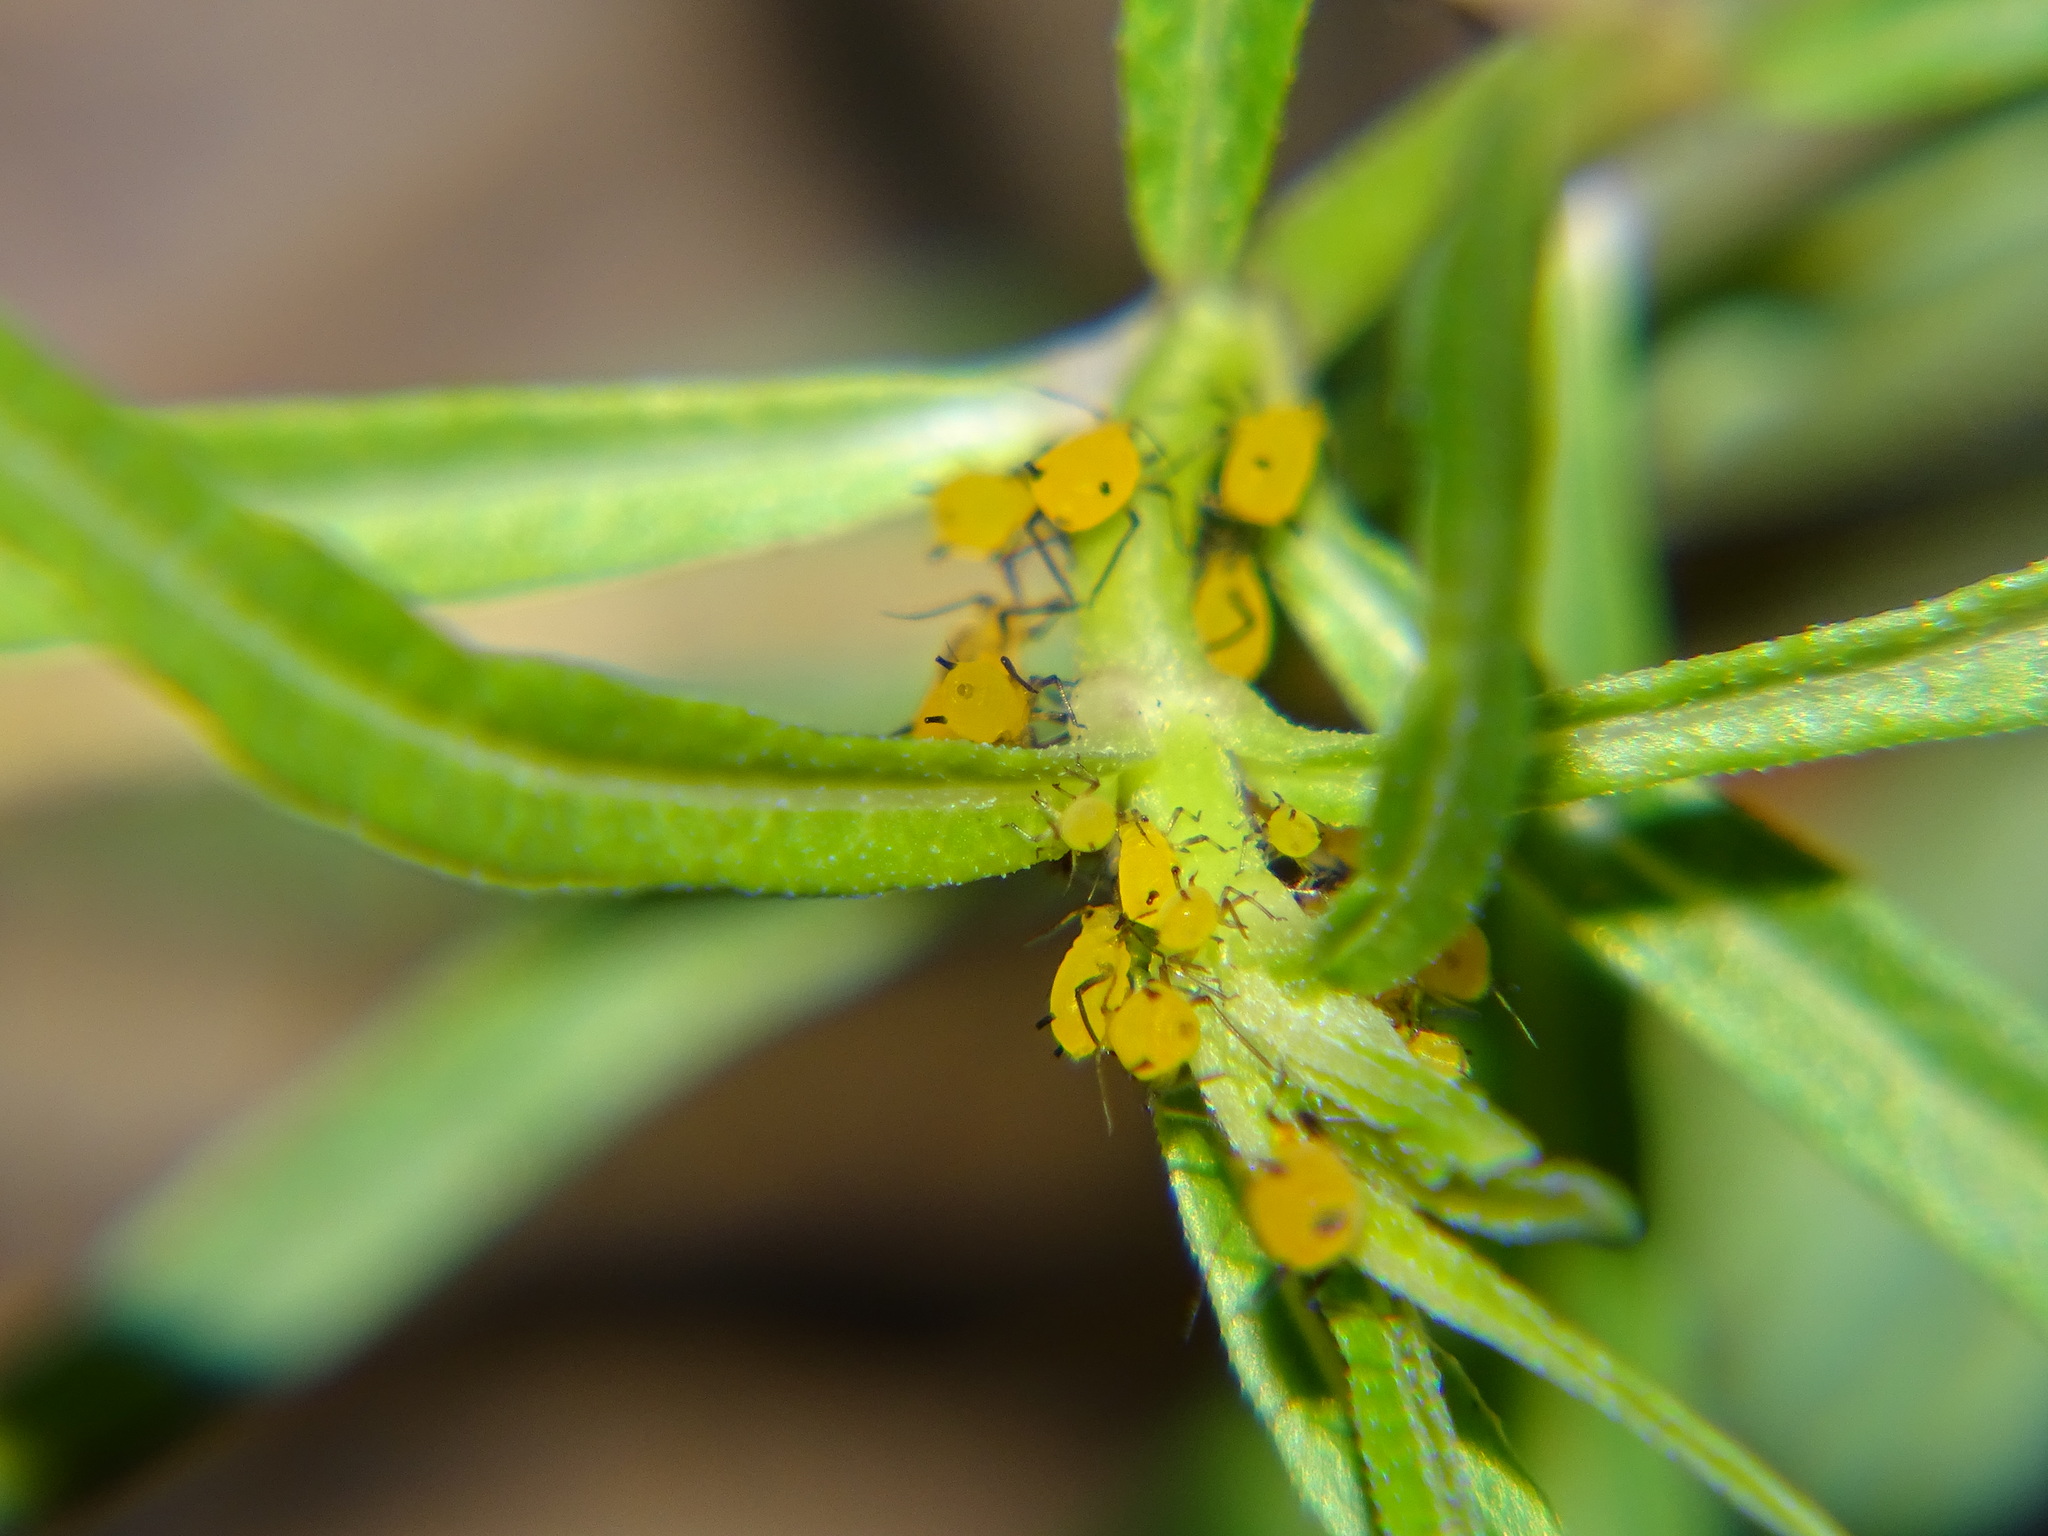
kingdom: Animalia
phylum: Arthropoda
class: Insecta
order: Hemiptera
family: Aphididae
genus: Aphis
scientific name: Aphis nerii
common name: Oleander aphid
